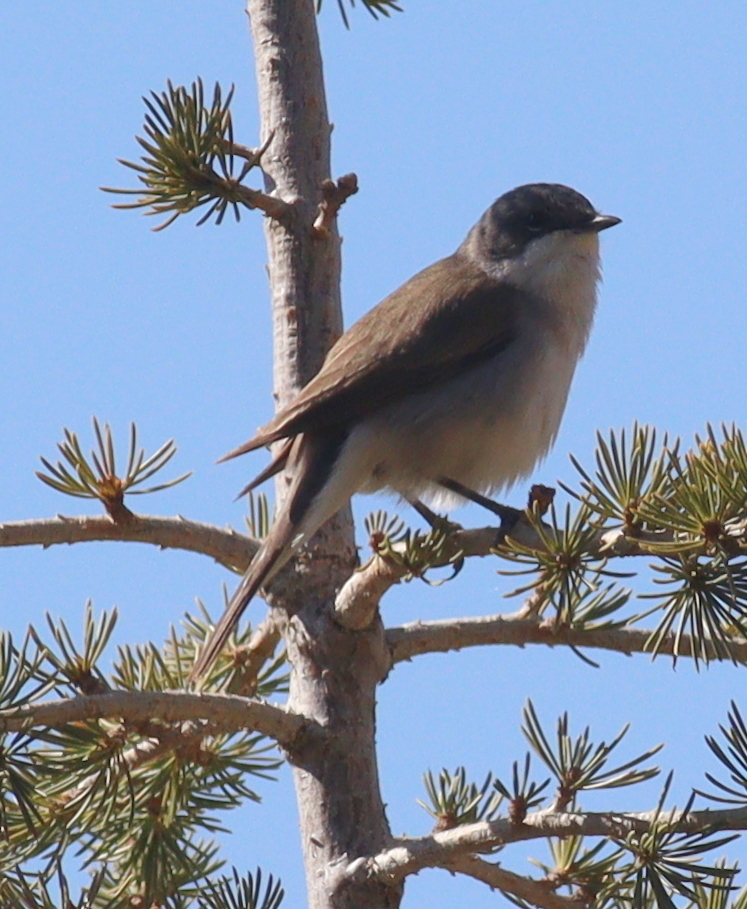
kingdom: Animalia
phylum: Chordata
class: Aves
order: Passeriformes
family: Sylviidae
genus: Sylvia
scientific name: Sylvia curruca
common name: Lesser whitethroat
